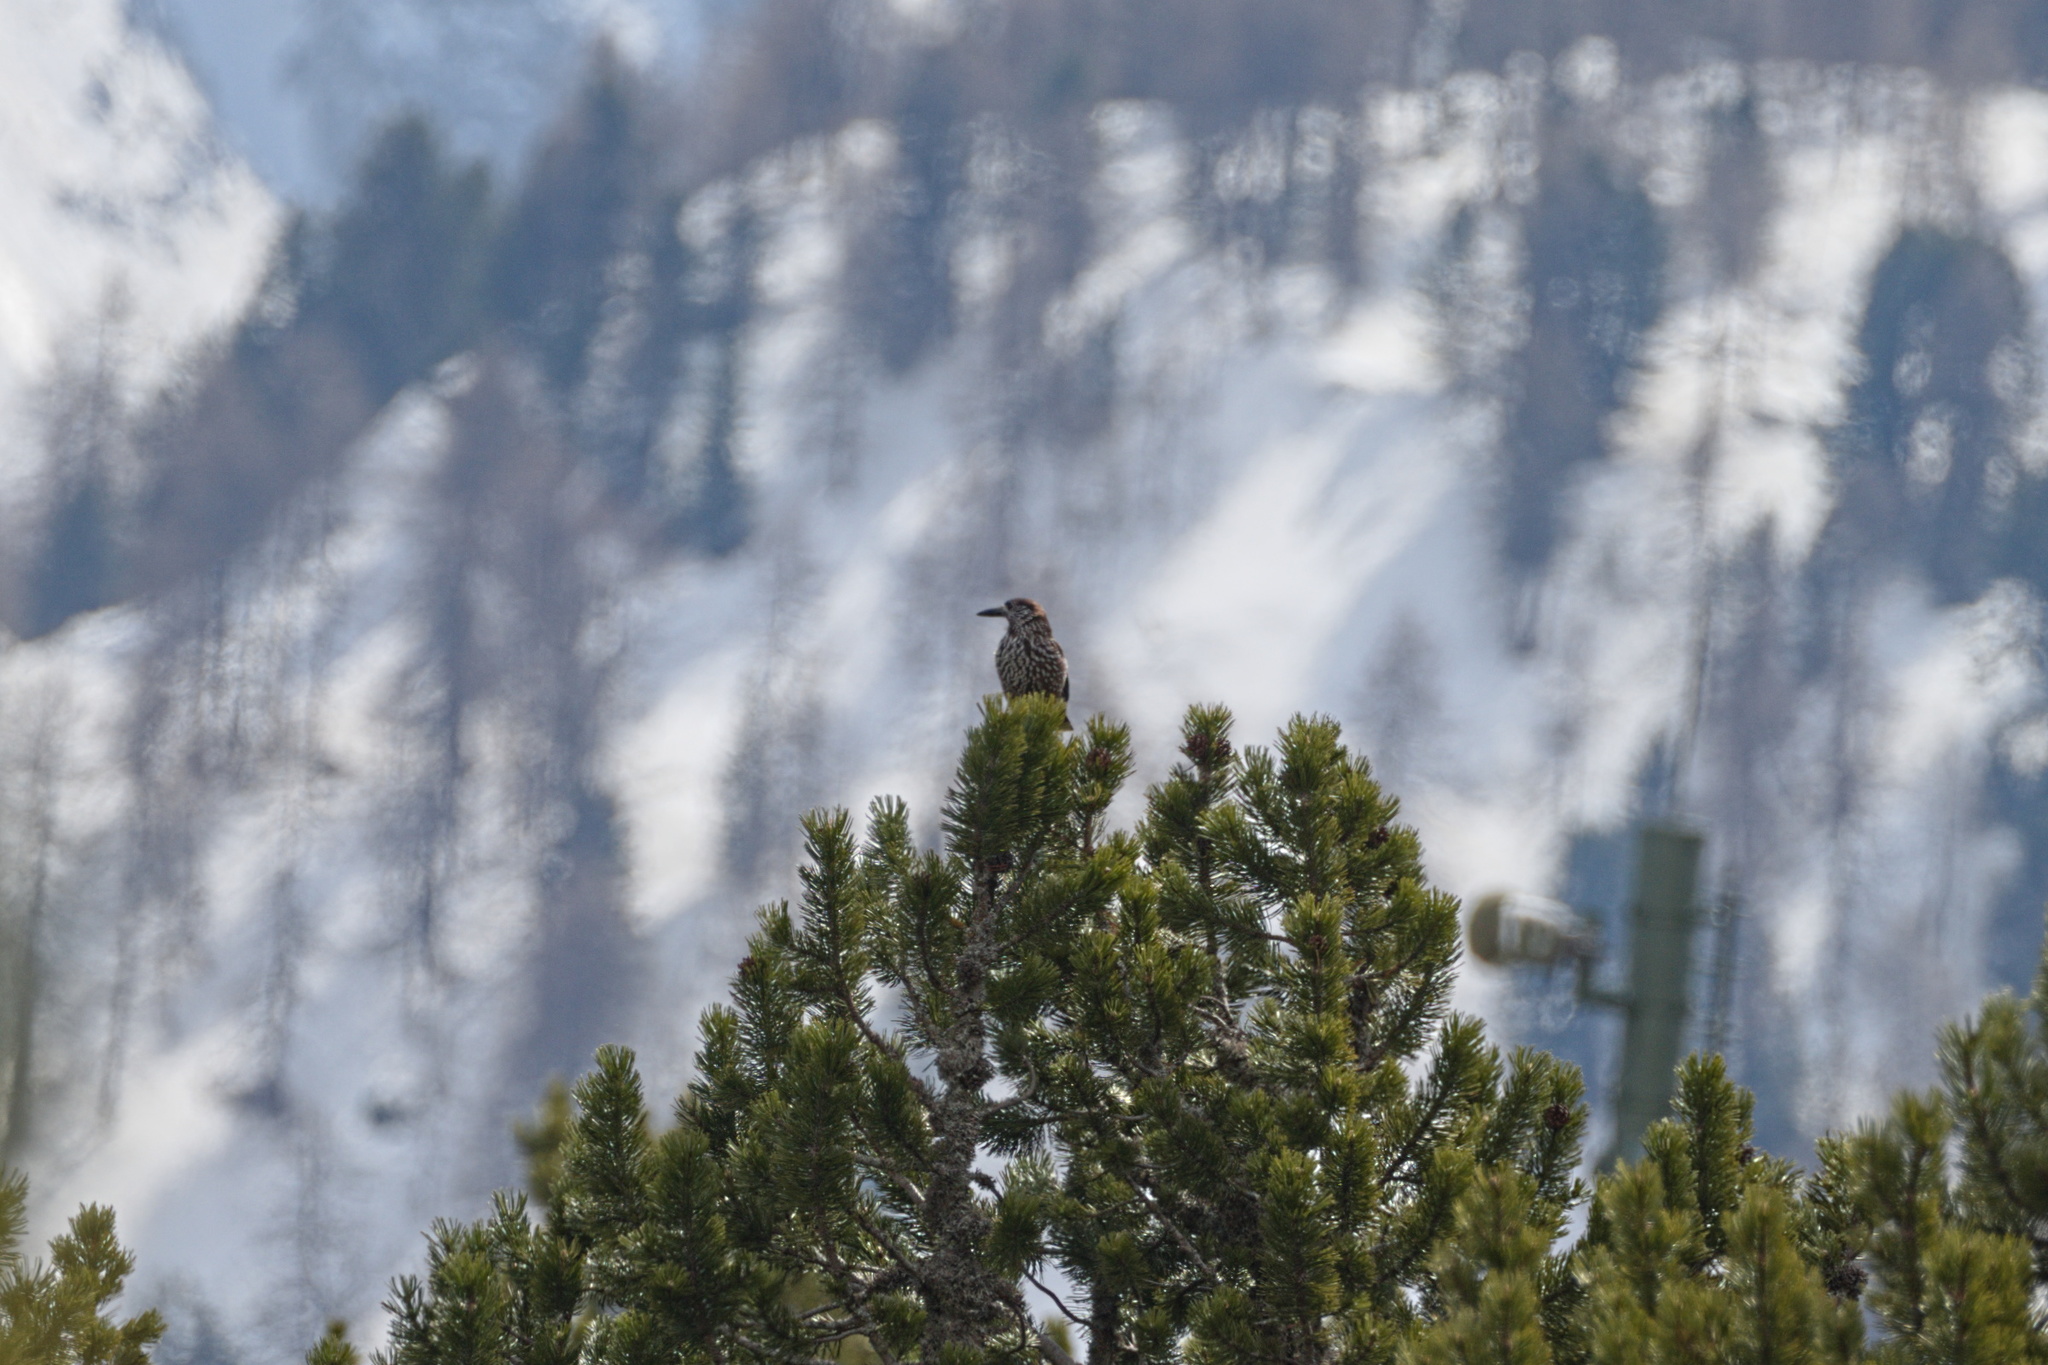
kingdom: Animalia
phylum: Chordata
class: Aves
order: Passeriformes
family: Corvidae
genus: Nucifraga
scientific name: Nucifraga caryocatactes
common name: Spotted nutcracker
